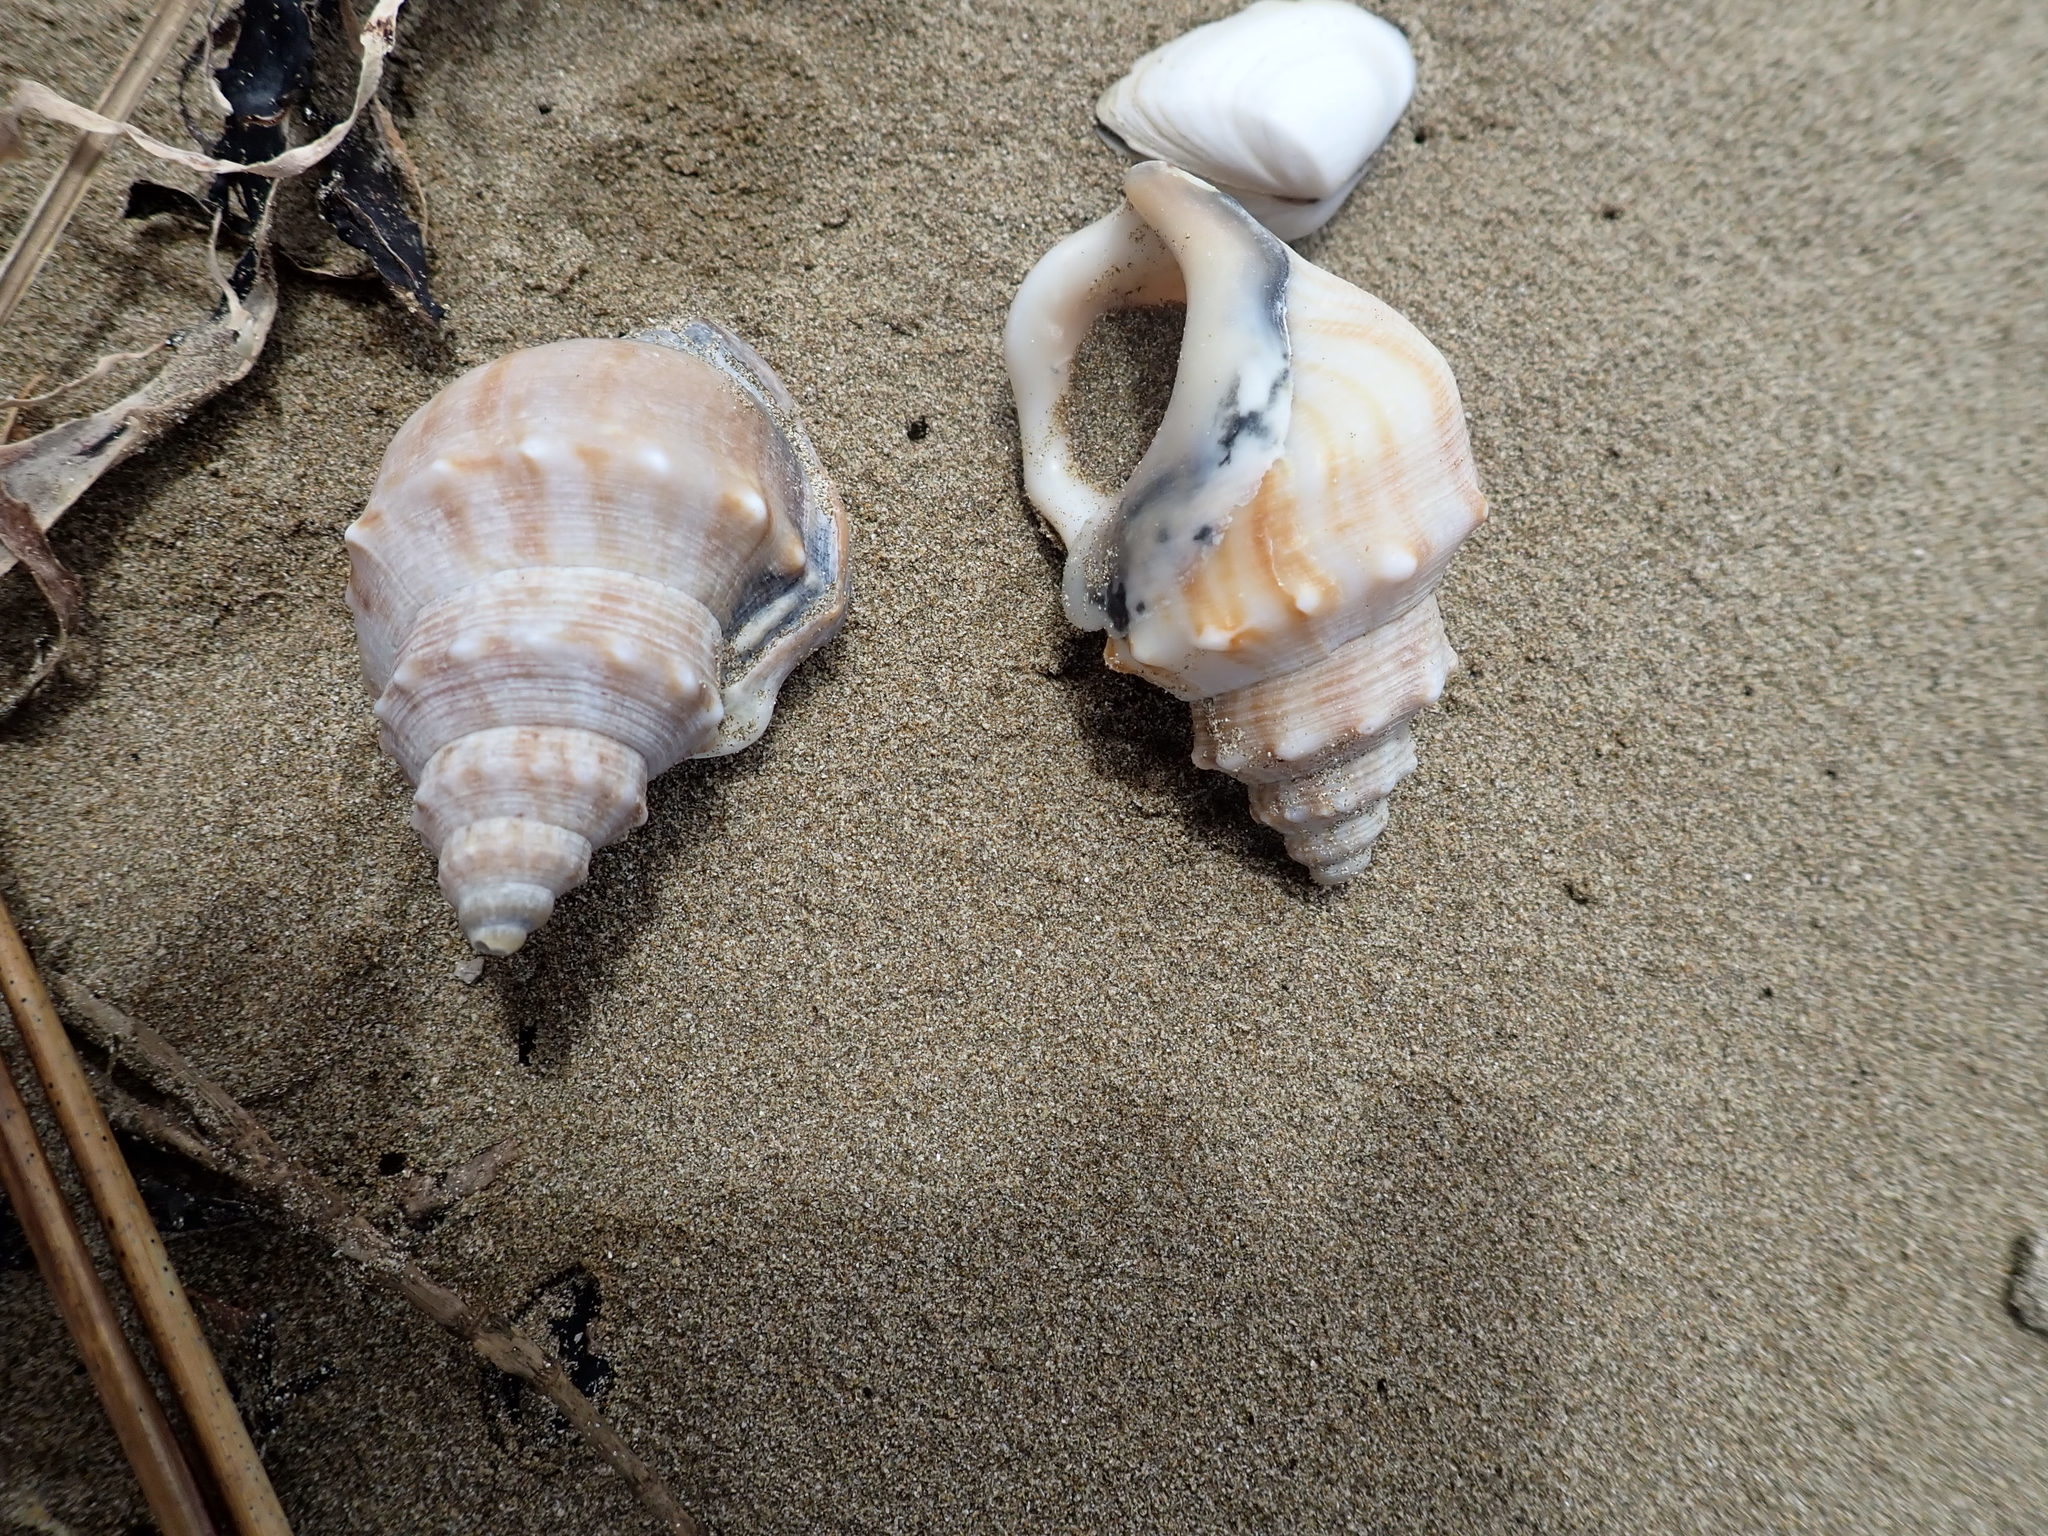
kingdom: Animalia
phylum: Mollusca
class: Gastropoda
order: Littorinimorpha
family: Struthiolariidae
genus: Struthiolaria
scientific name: Struthiolaria papulosa
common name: Large ostrich foot
